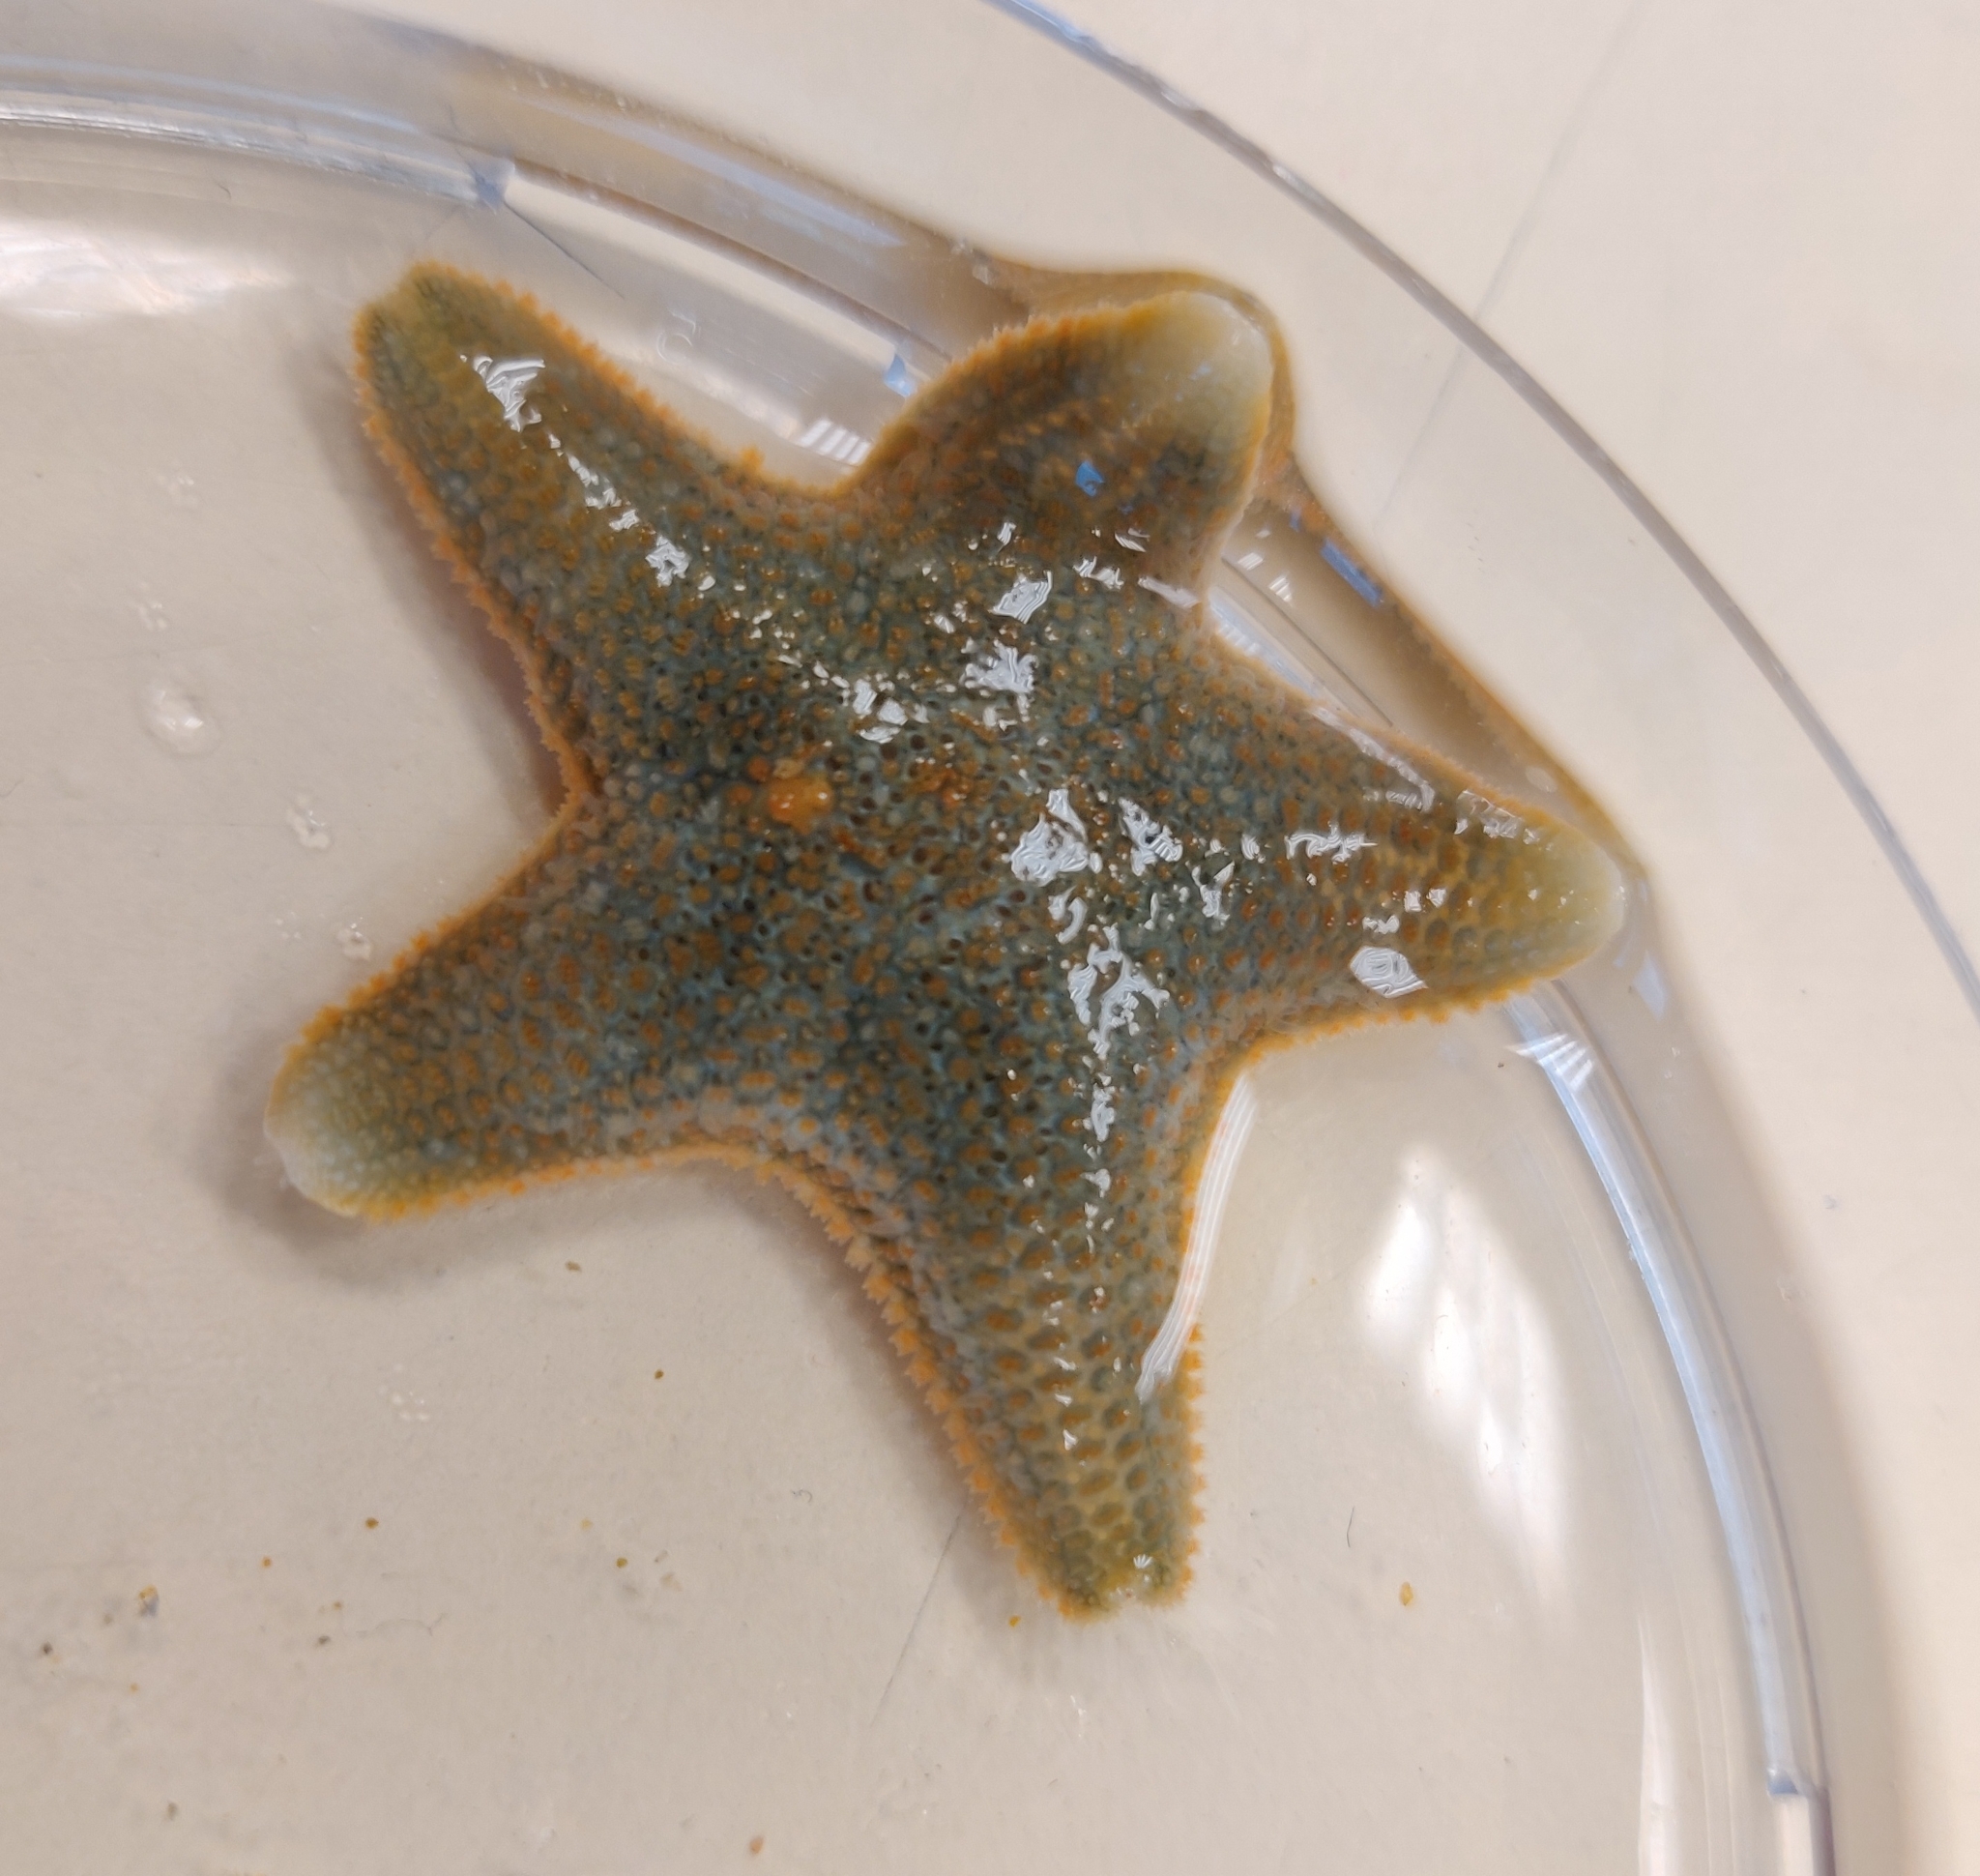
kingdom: Animalia
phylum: Echinodermata
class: Asteroidea
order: Valvatida
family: Asterinidae
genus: Asterina
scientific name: Asterina gibbosa
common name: Cushion star
